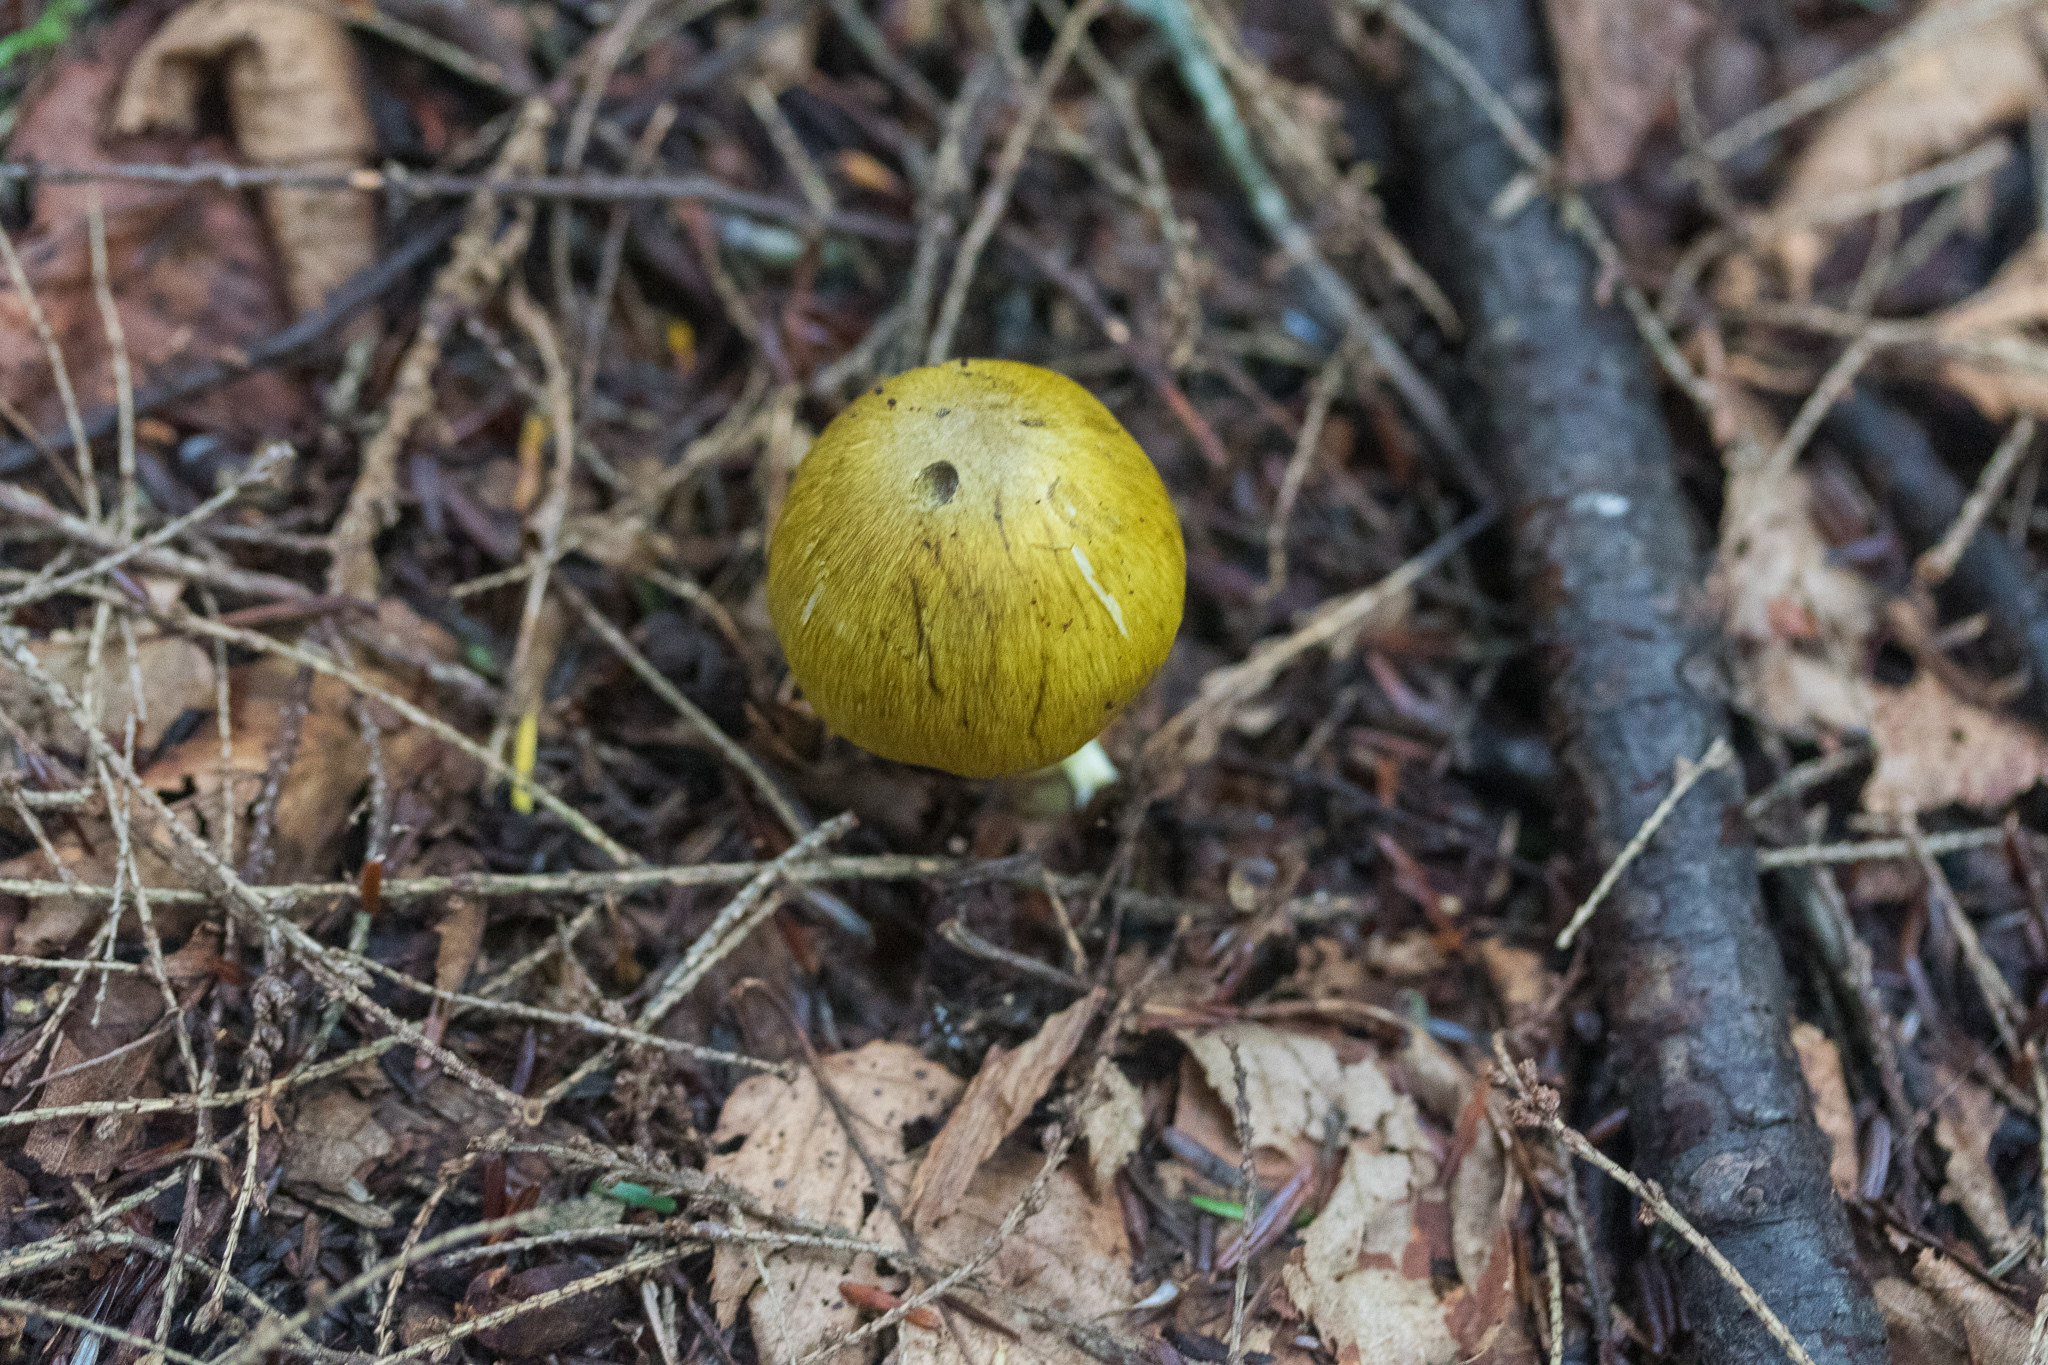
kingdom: Fungi
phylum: Basidiomycota
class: Agaricomycetes
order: Agaricales
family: Tricholomataceae
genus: Tricholoma
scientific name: Tricholoma subsejunctum
